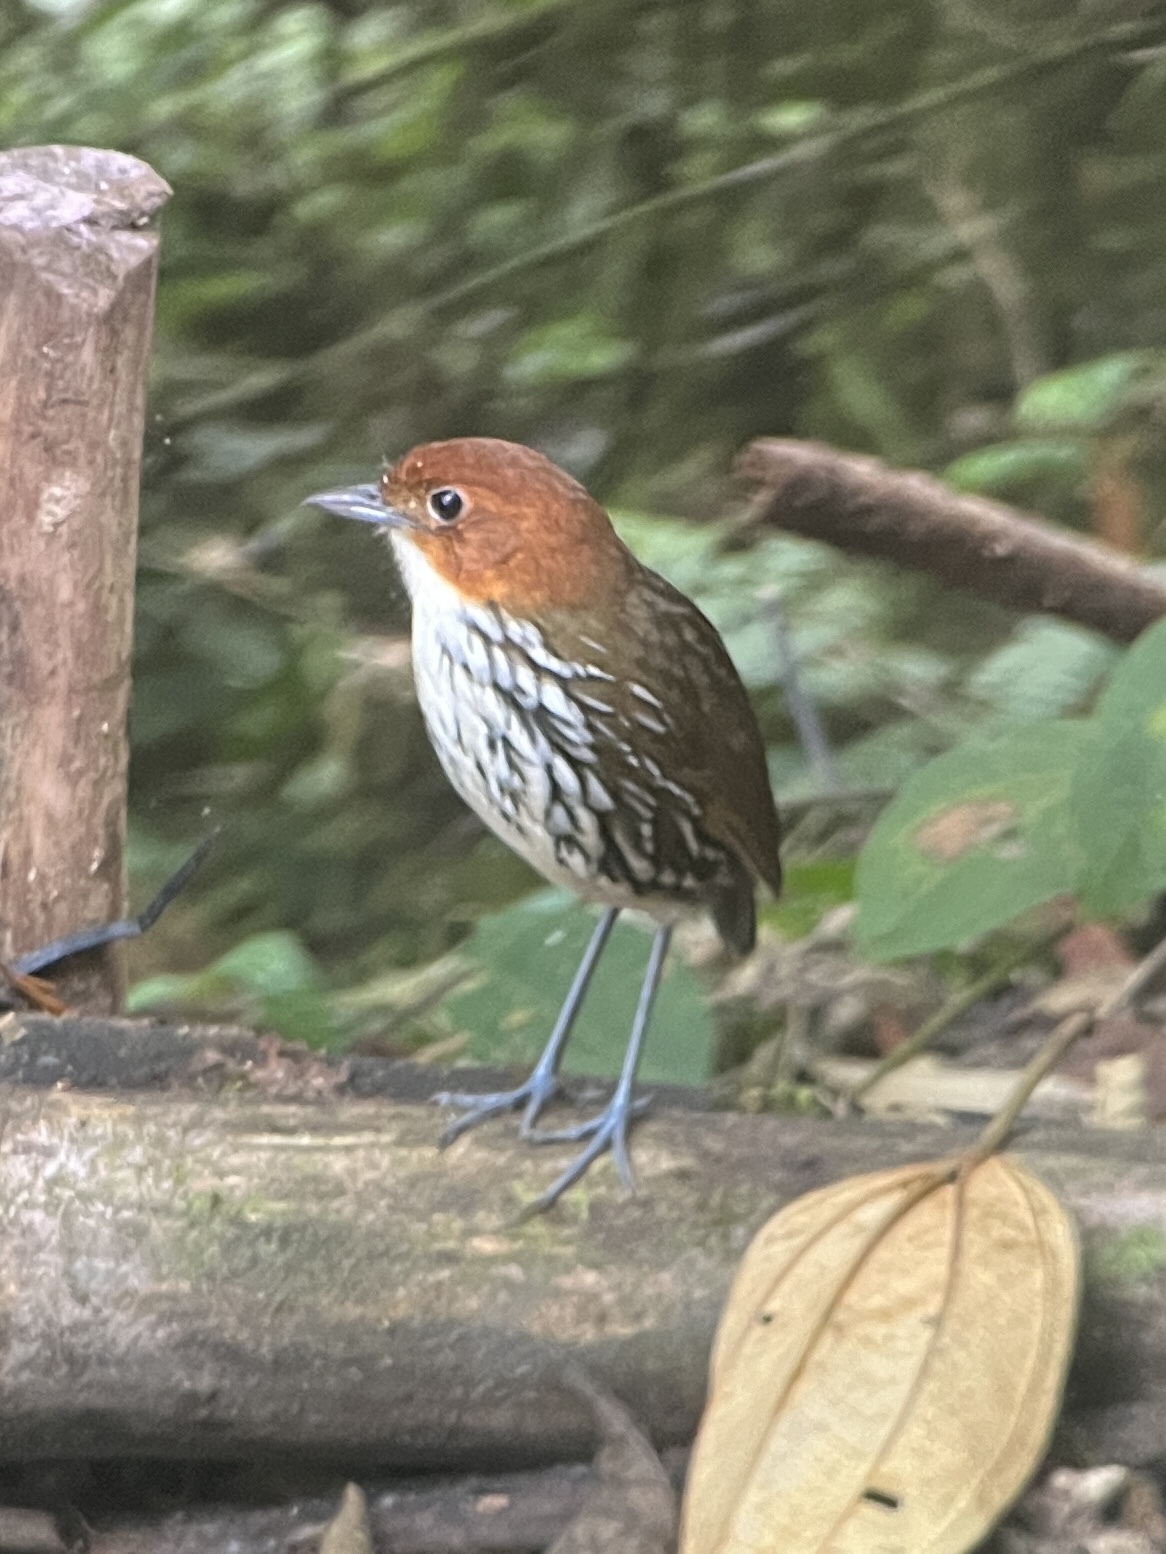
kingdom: Animalia
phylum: Chordata
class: Aves
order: Passeriformes
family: Grallariidae
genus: Grallaria
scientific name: Grallaria ruficapilla
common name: Chestnut-crowned antpitta
